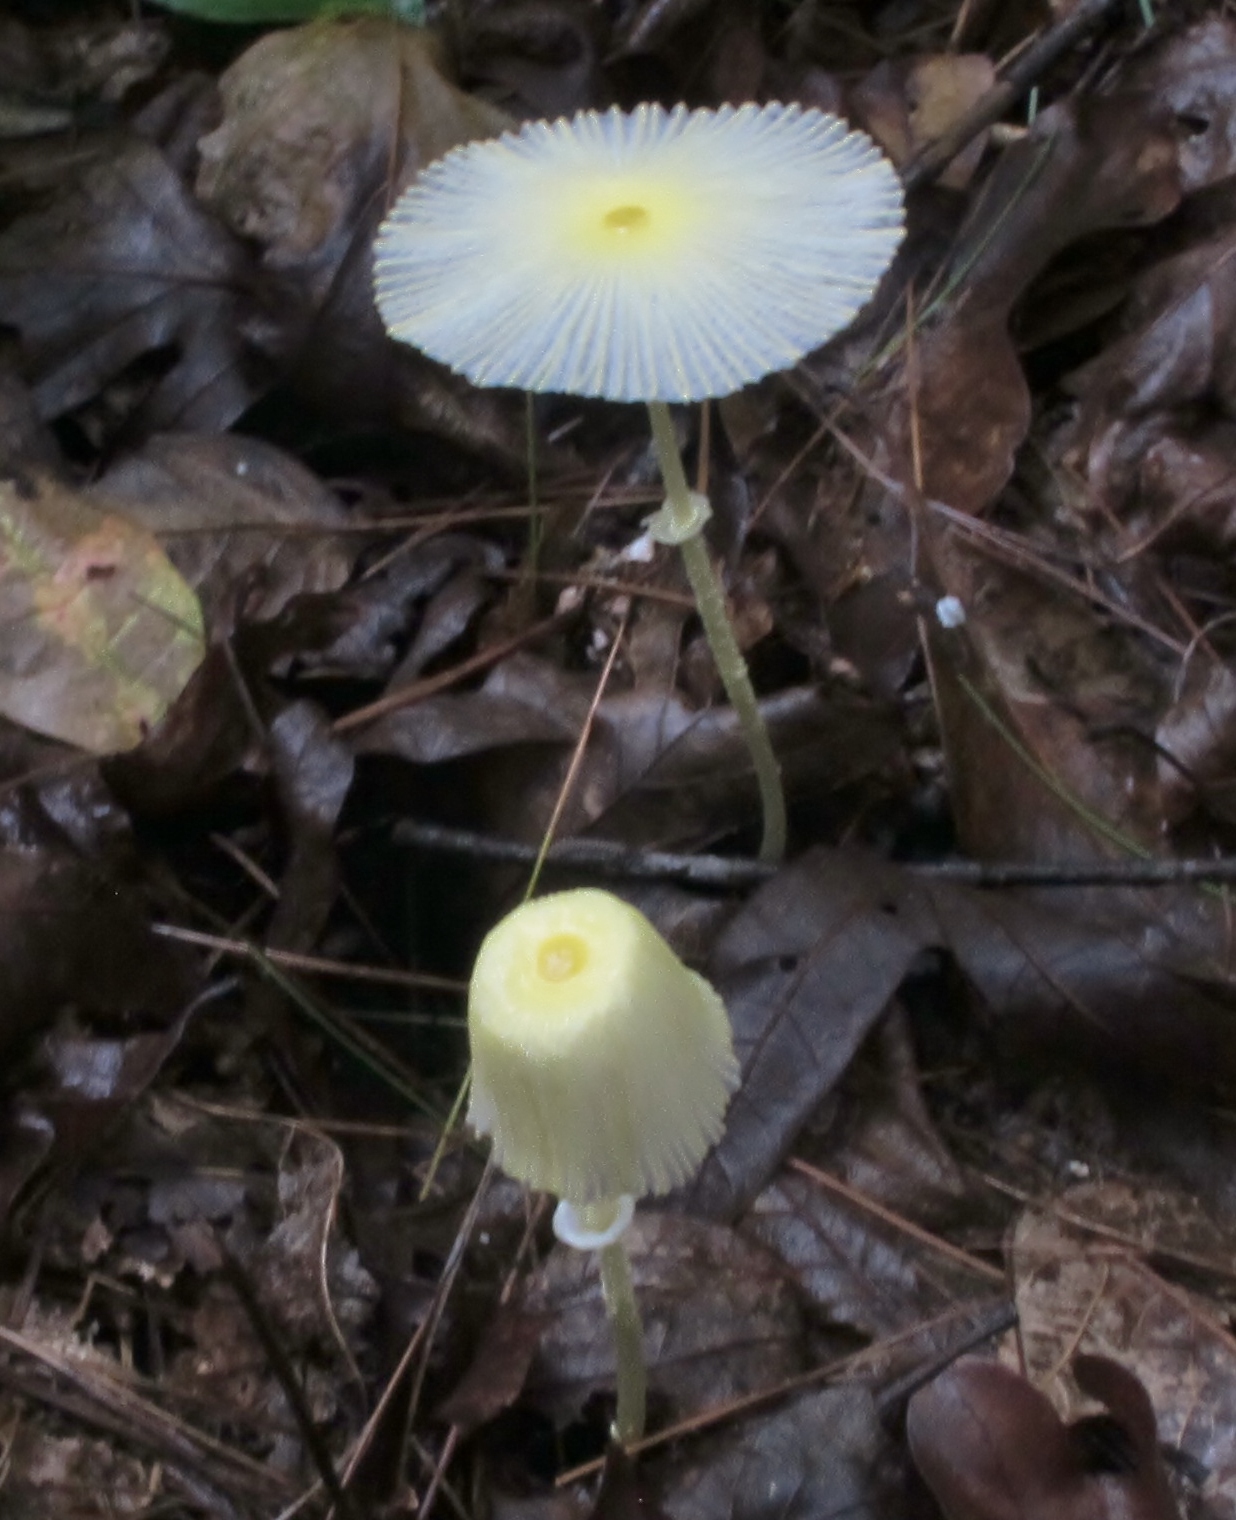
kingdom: Fungi
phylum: Basidiomycota
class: Agaricomycetes
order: Agaricales
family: Agaricaceae
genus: Leucocoprinus
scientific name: Leucocoprinus fragilissimus
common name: Fragile dapperling
